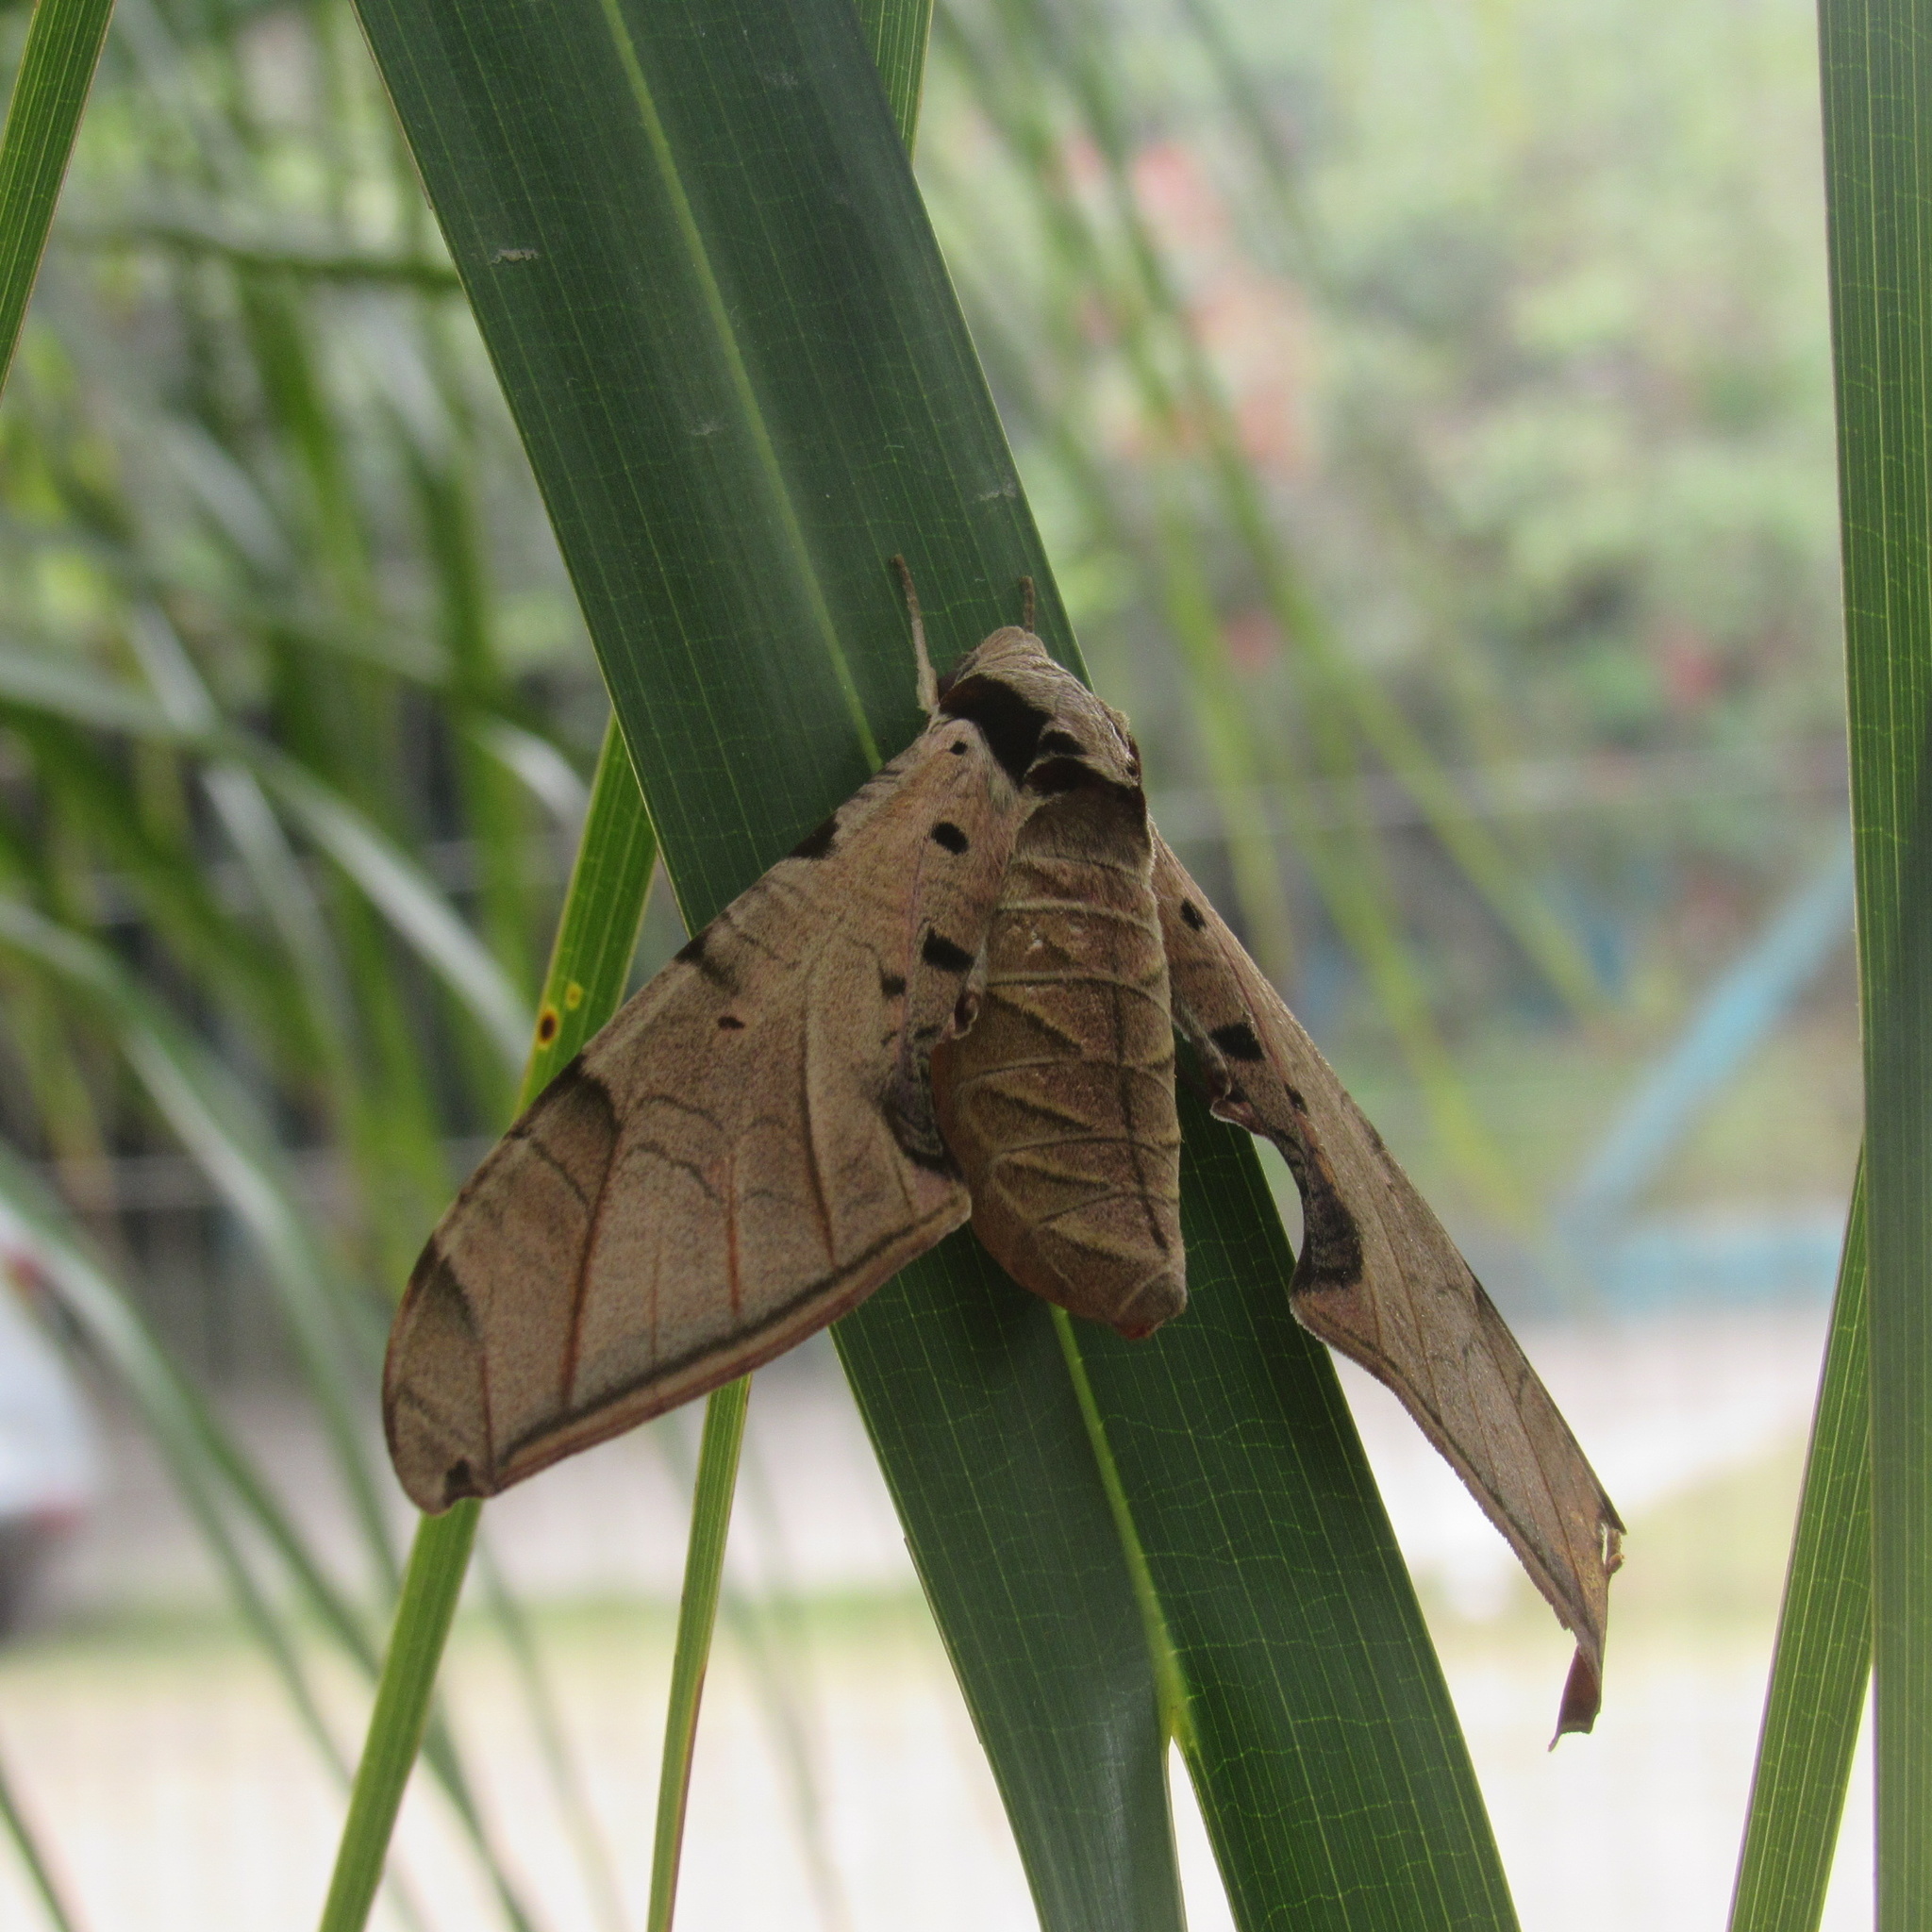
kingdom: Animalia
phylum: Arthropoda
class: Insecta
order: Lepidoptera
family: Sphingidae
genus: Protambulyx
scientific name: Protambulyx strigilis
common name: Streaked sphinx
